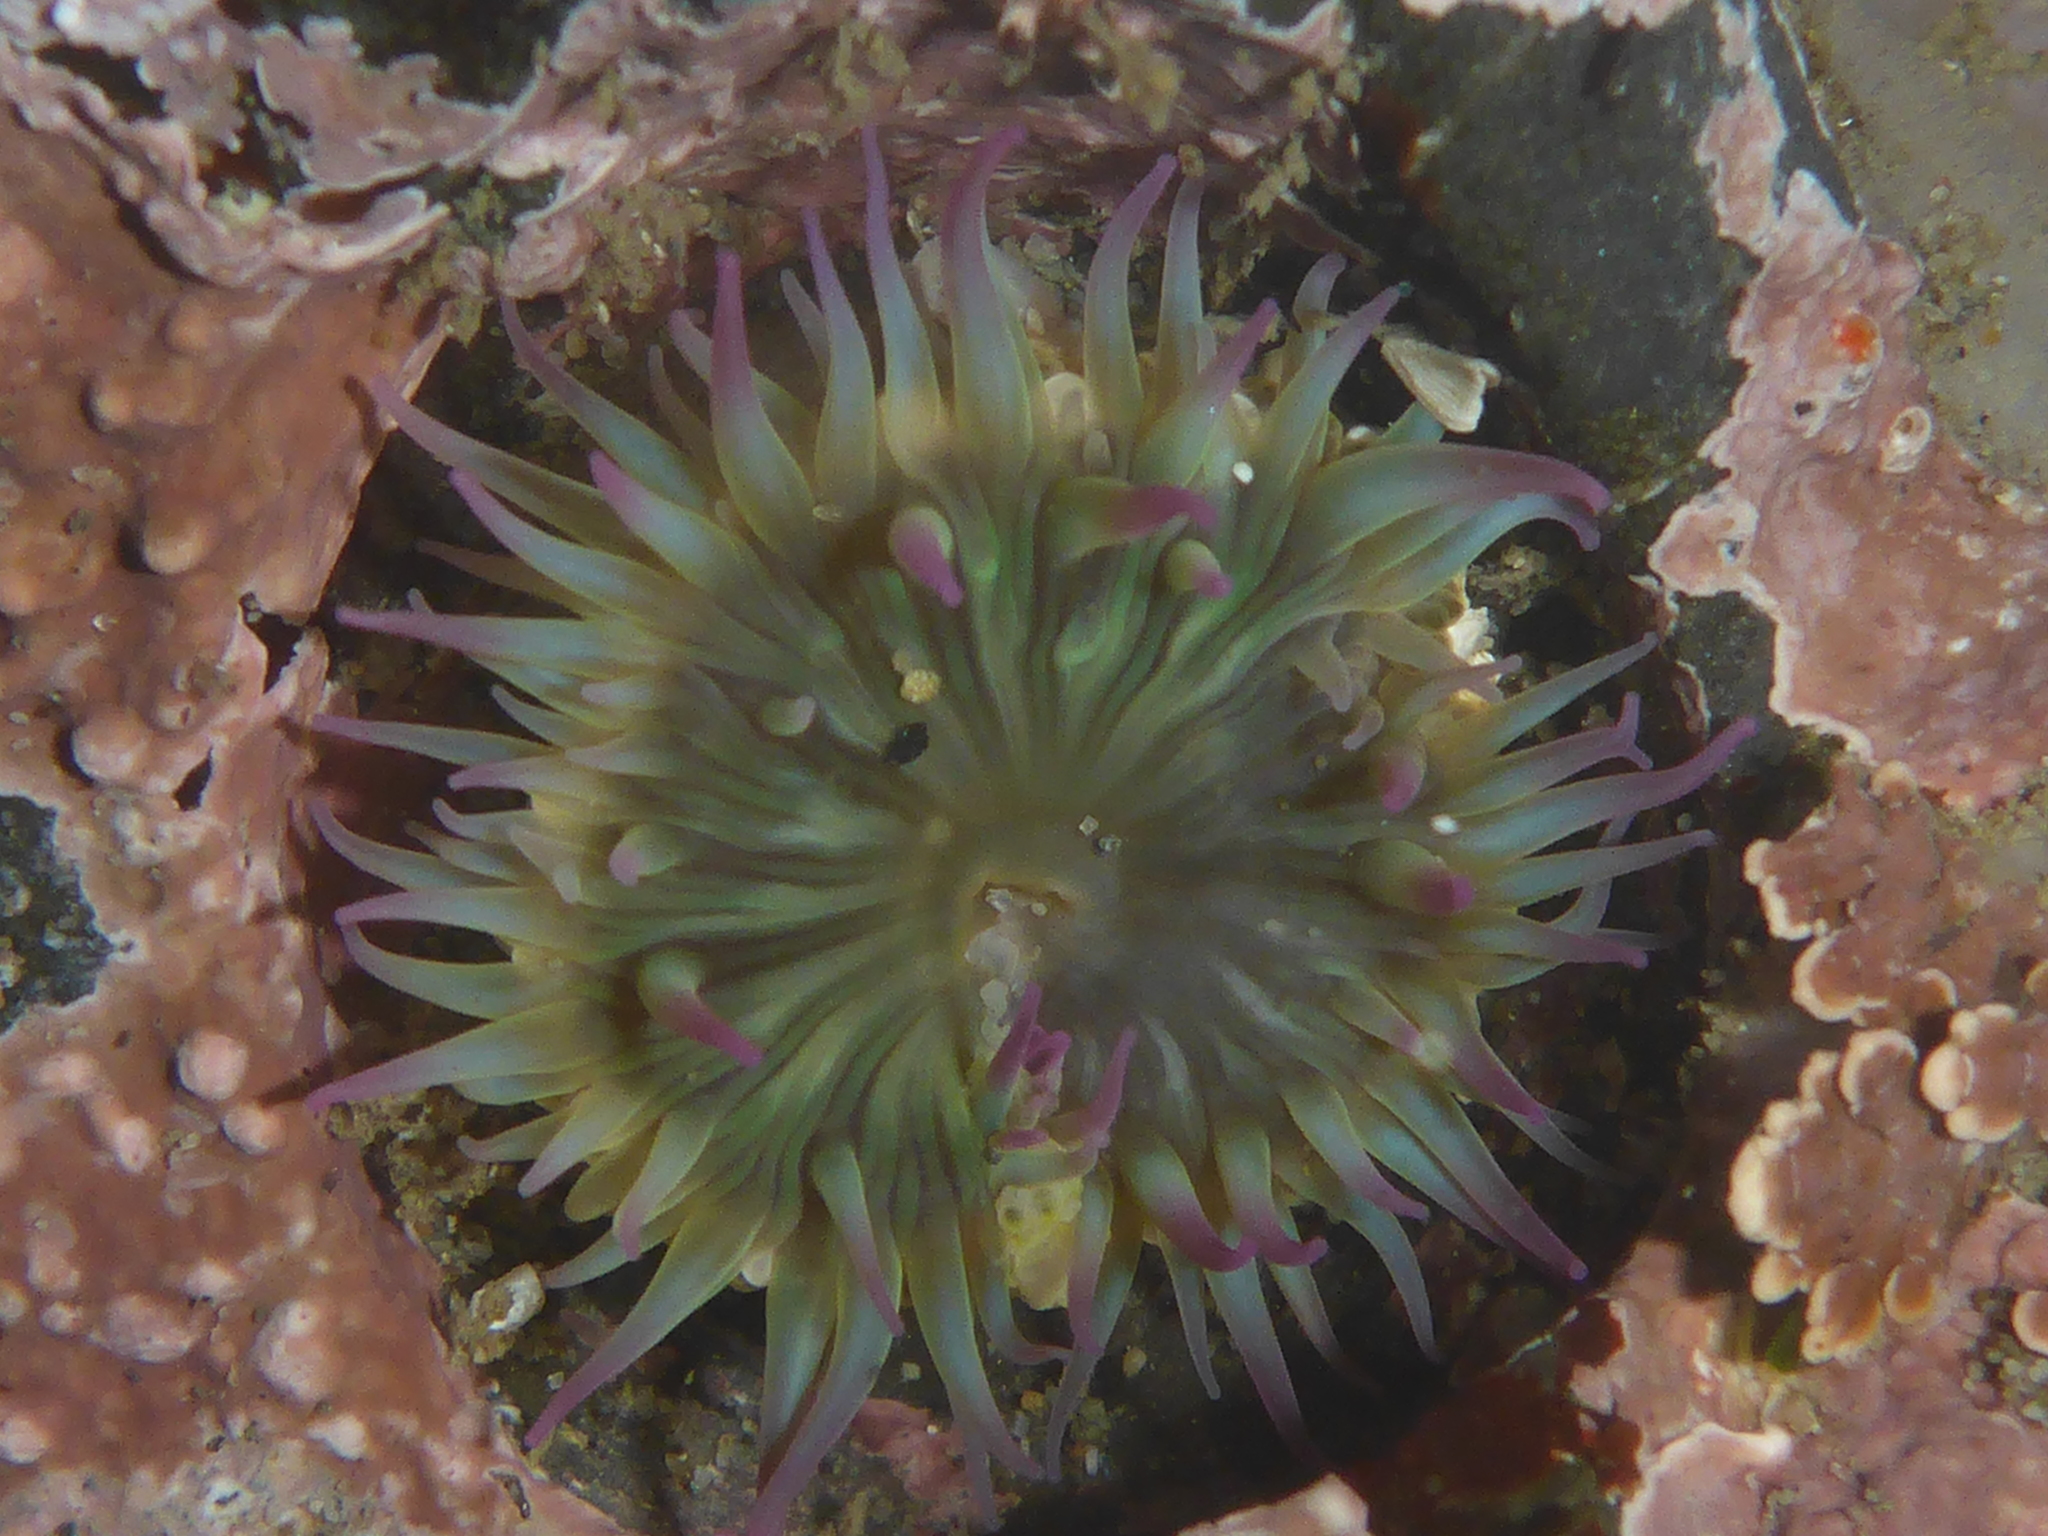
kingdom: Animalia
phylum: Cnidaria
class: Anthozoa
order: Actiniaria
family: Actiniidae
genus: Anthopleura
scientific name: Anthopleura elegantissima
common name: Clonal anemone
